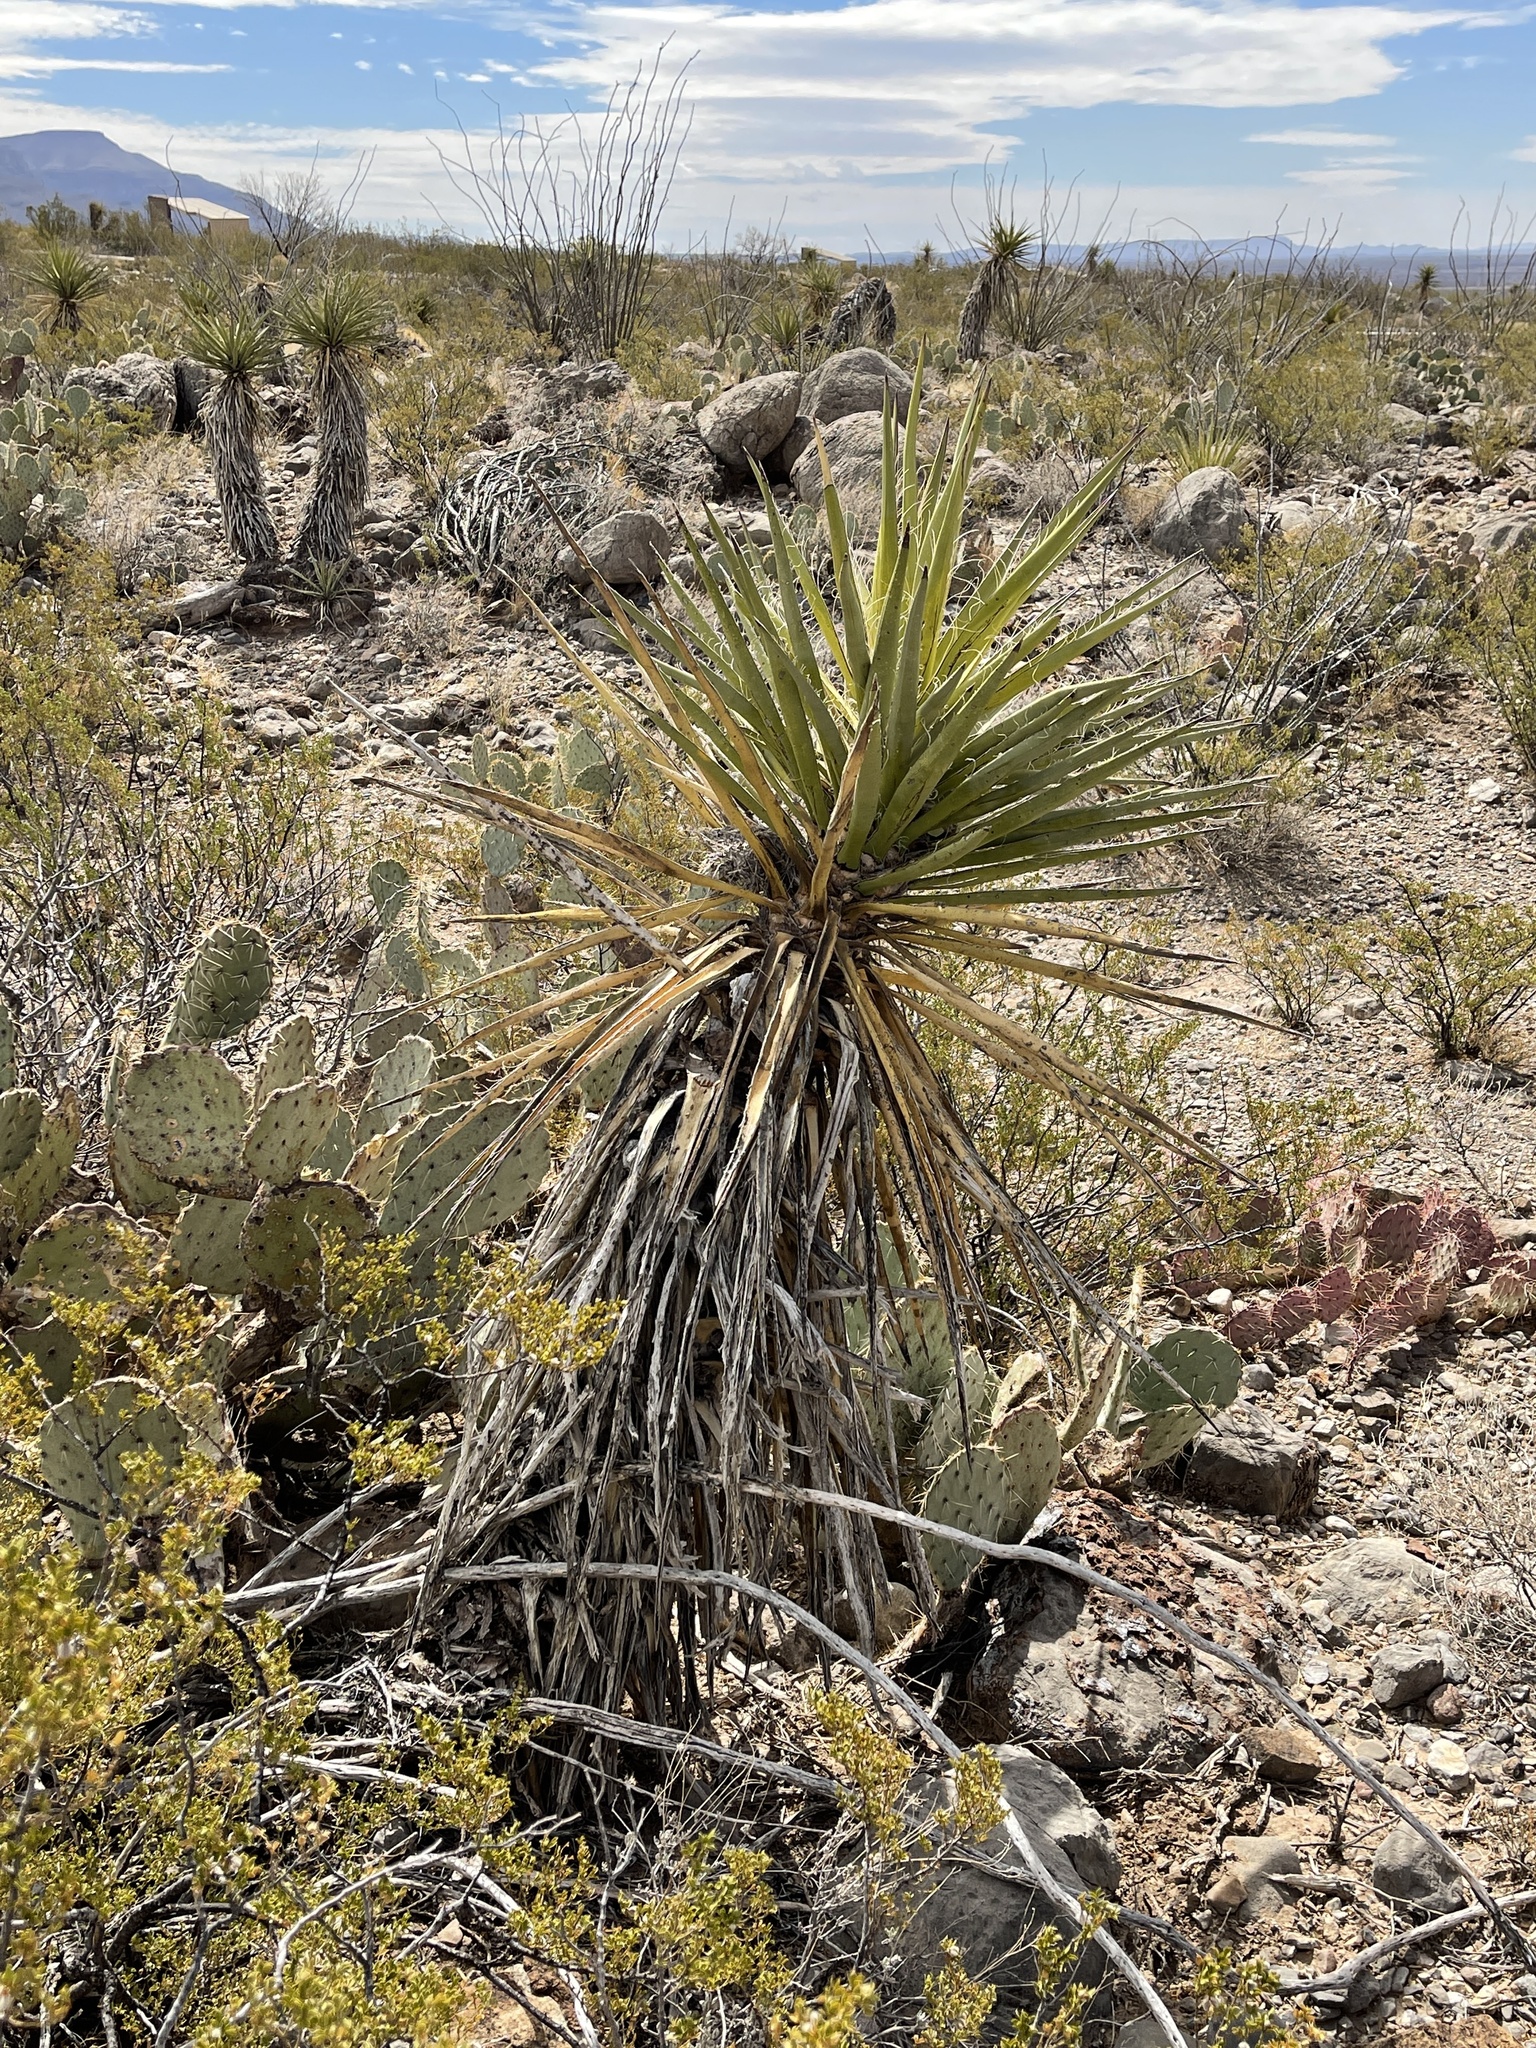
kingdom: Plantae
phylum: Tracheophyta
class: Liliopsida
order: Asparagales
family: Asparagaceae
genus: Yucca
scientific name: Yucca treculiana
